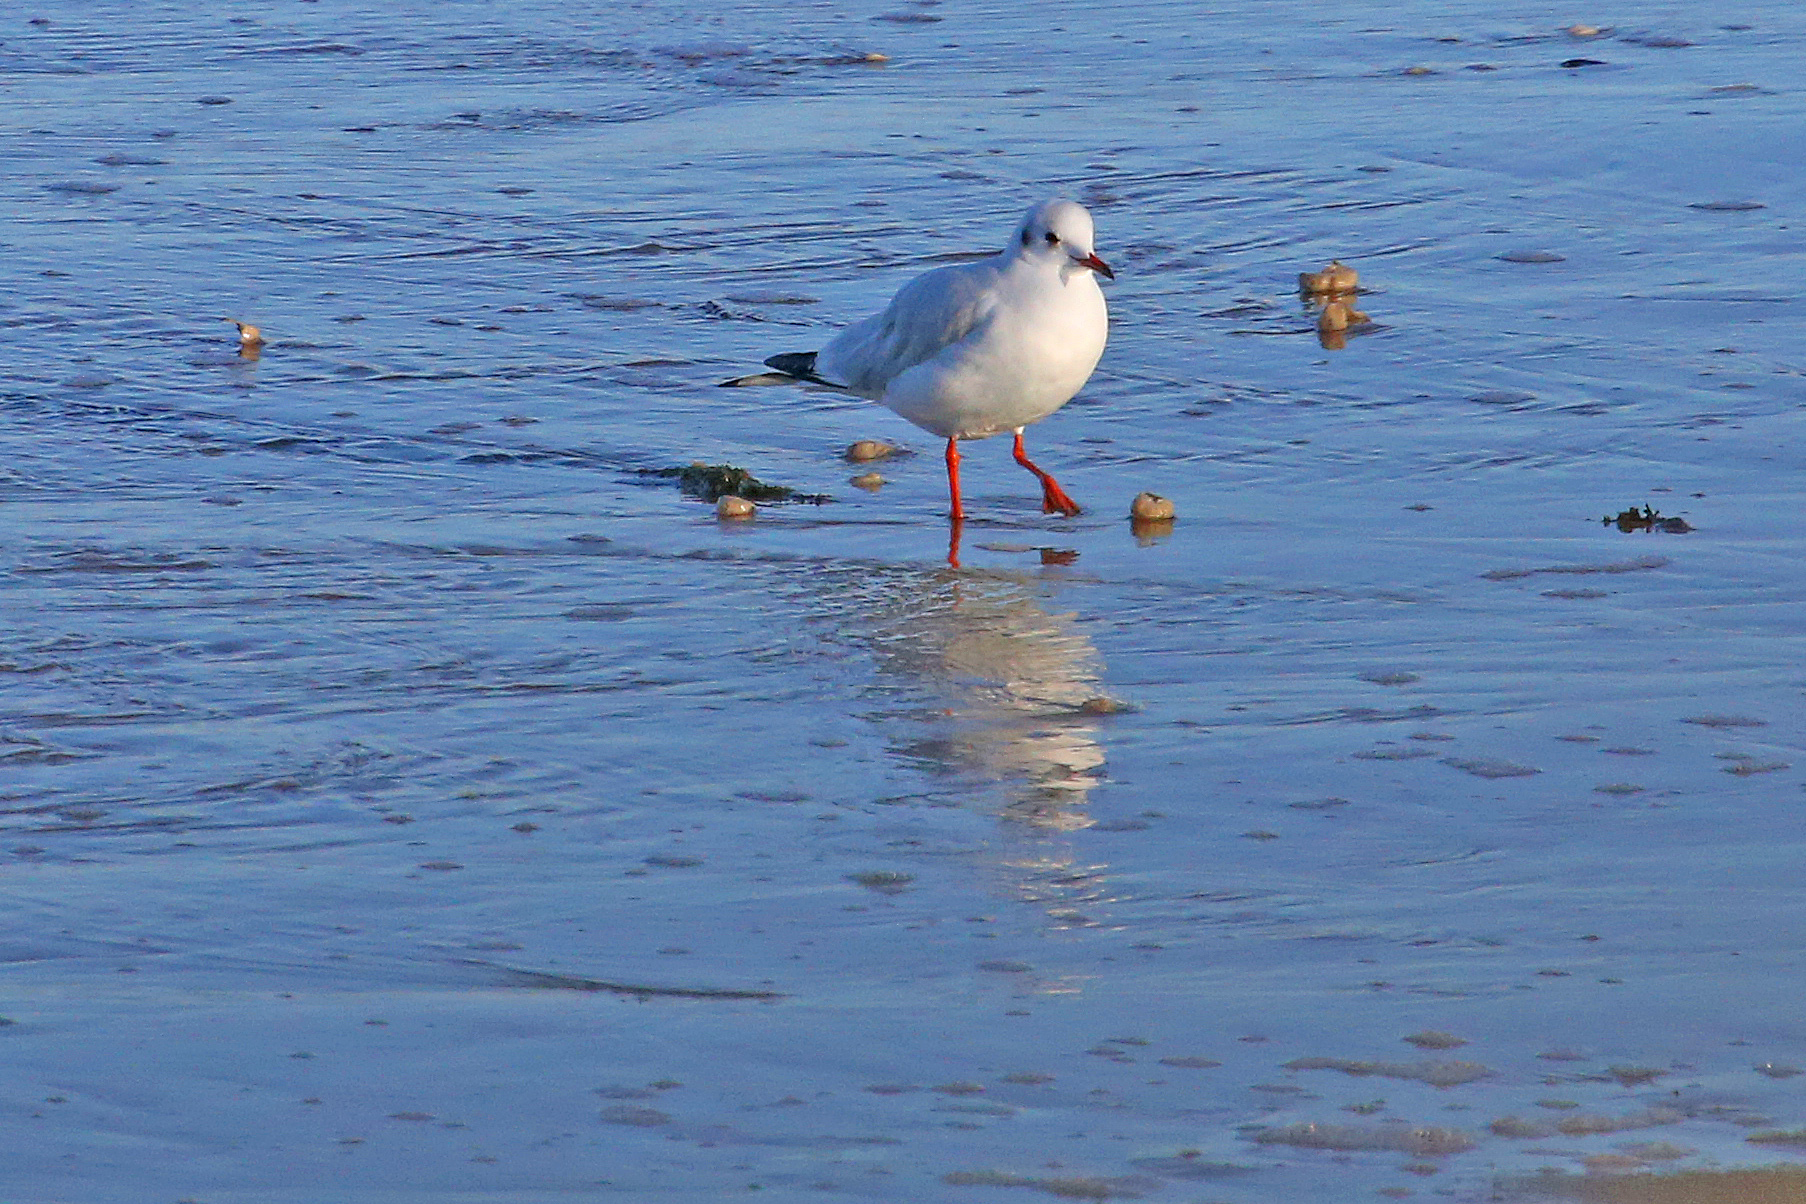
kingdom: Animalia
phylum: Chordata
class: Aves
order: Charadriiformes
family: Laridae
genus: Chroicocephalus
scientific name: Chroicocephalus ridibundus
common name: Black-headed gull
